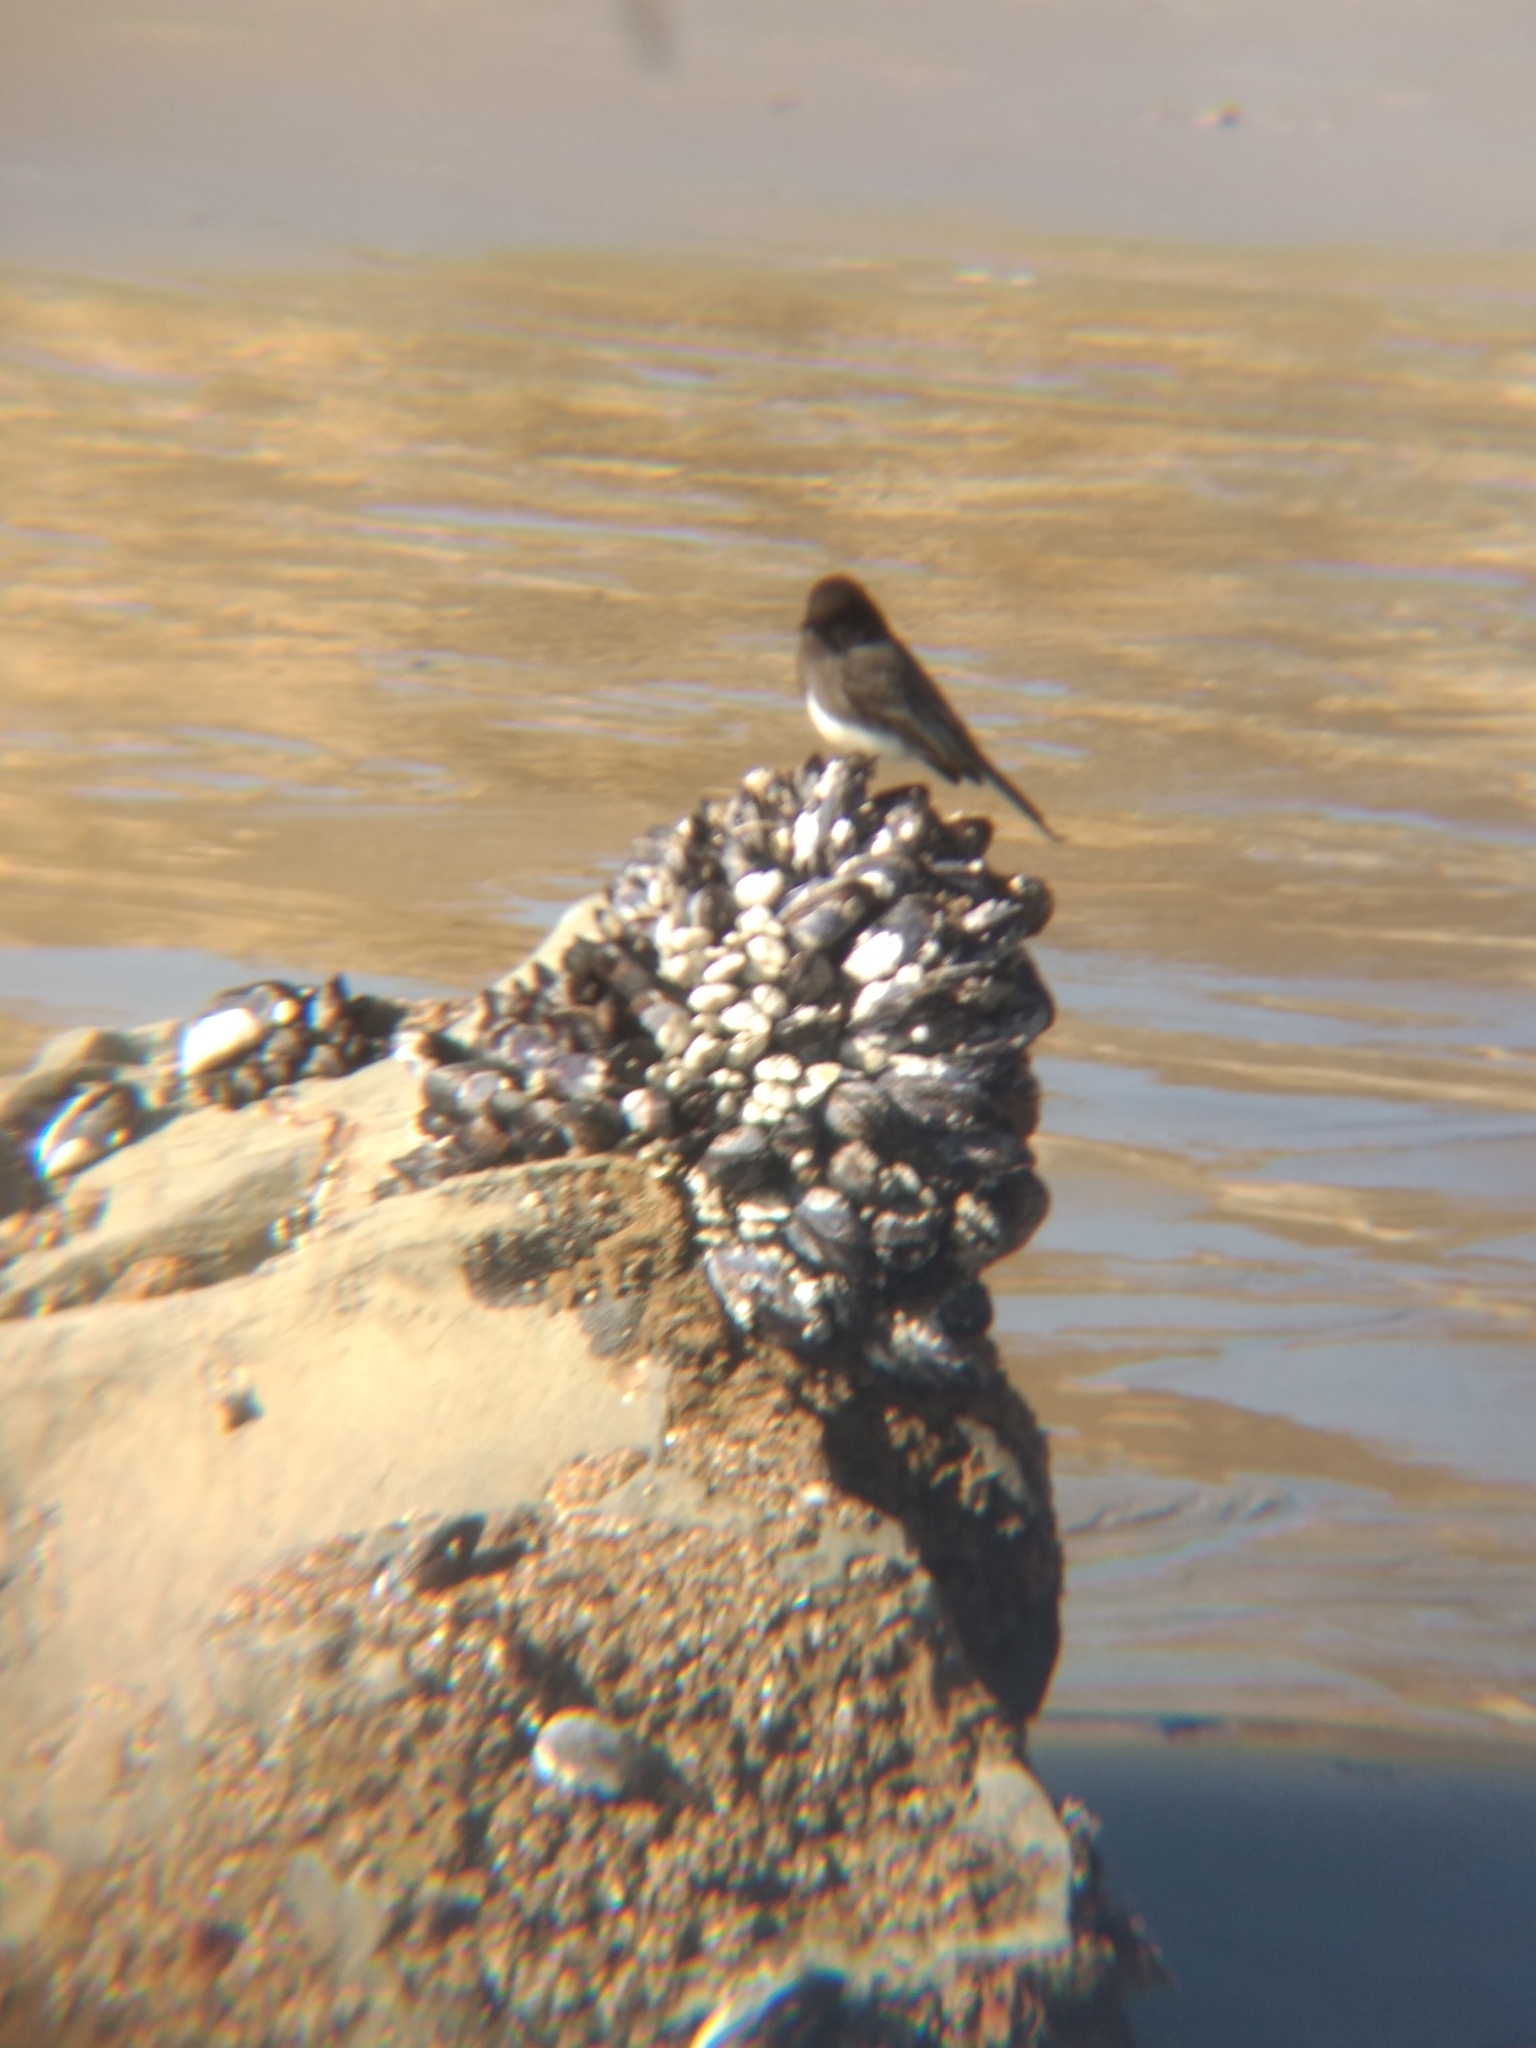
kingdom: Animalia
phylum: Chordata
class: Aves
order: Passeriformes
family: Tyrannidae
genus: Sayornis
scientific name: Sayornis nigricans
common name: Black phoebe
